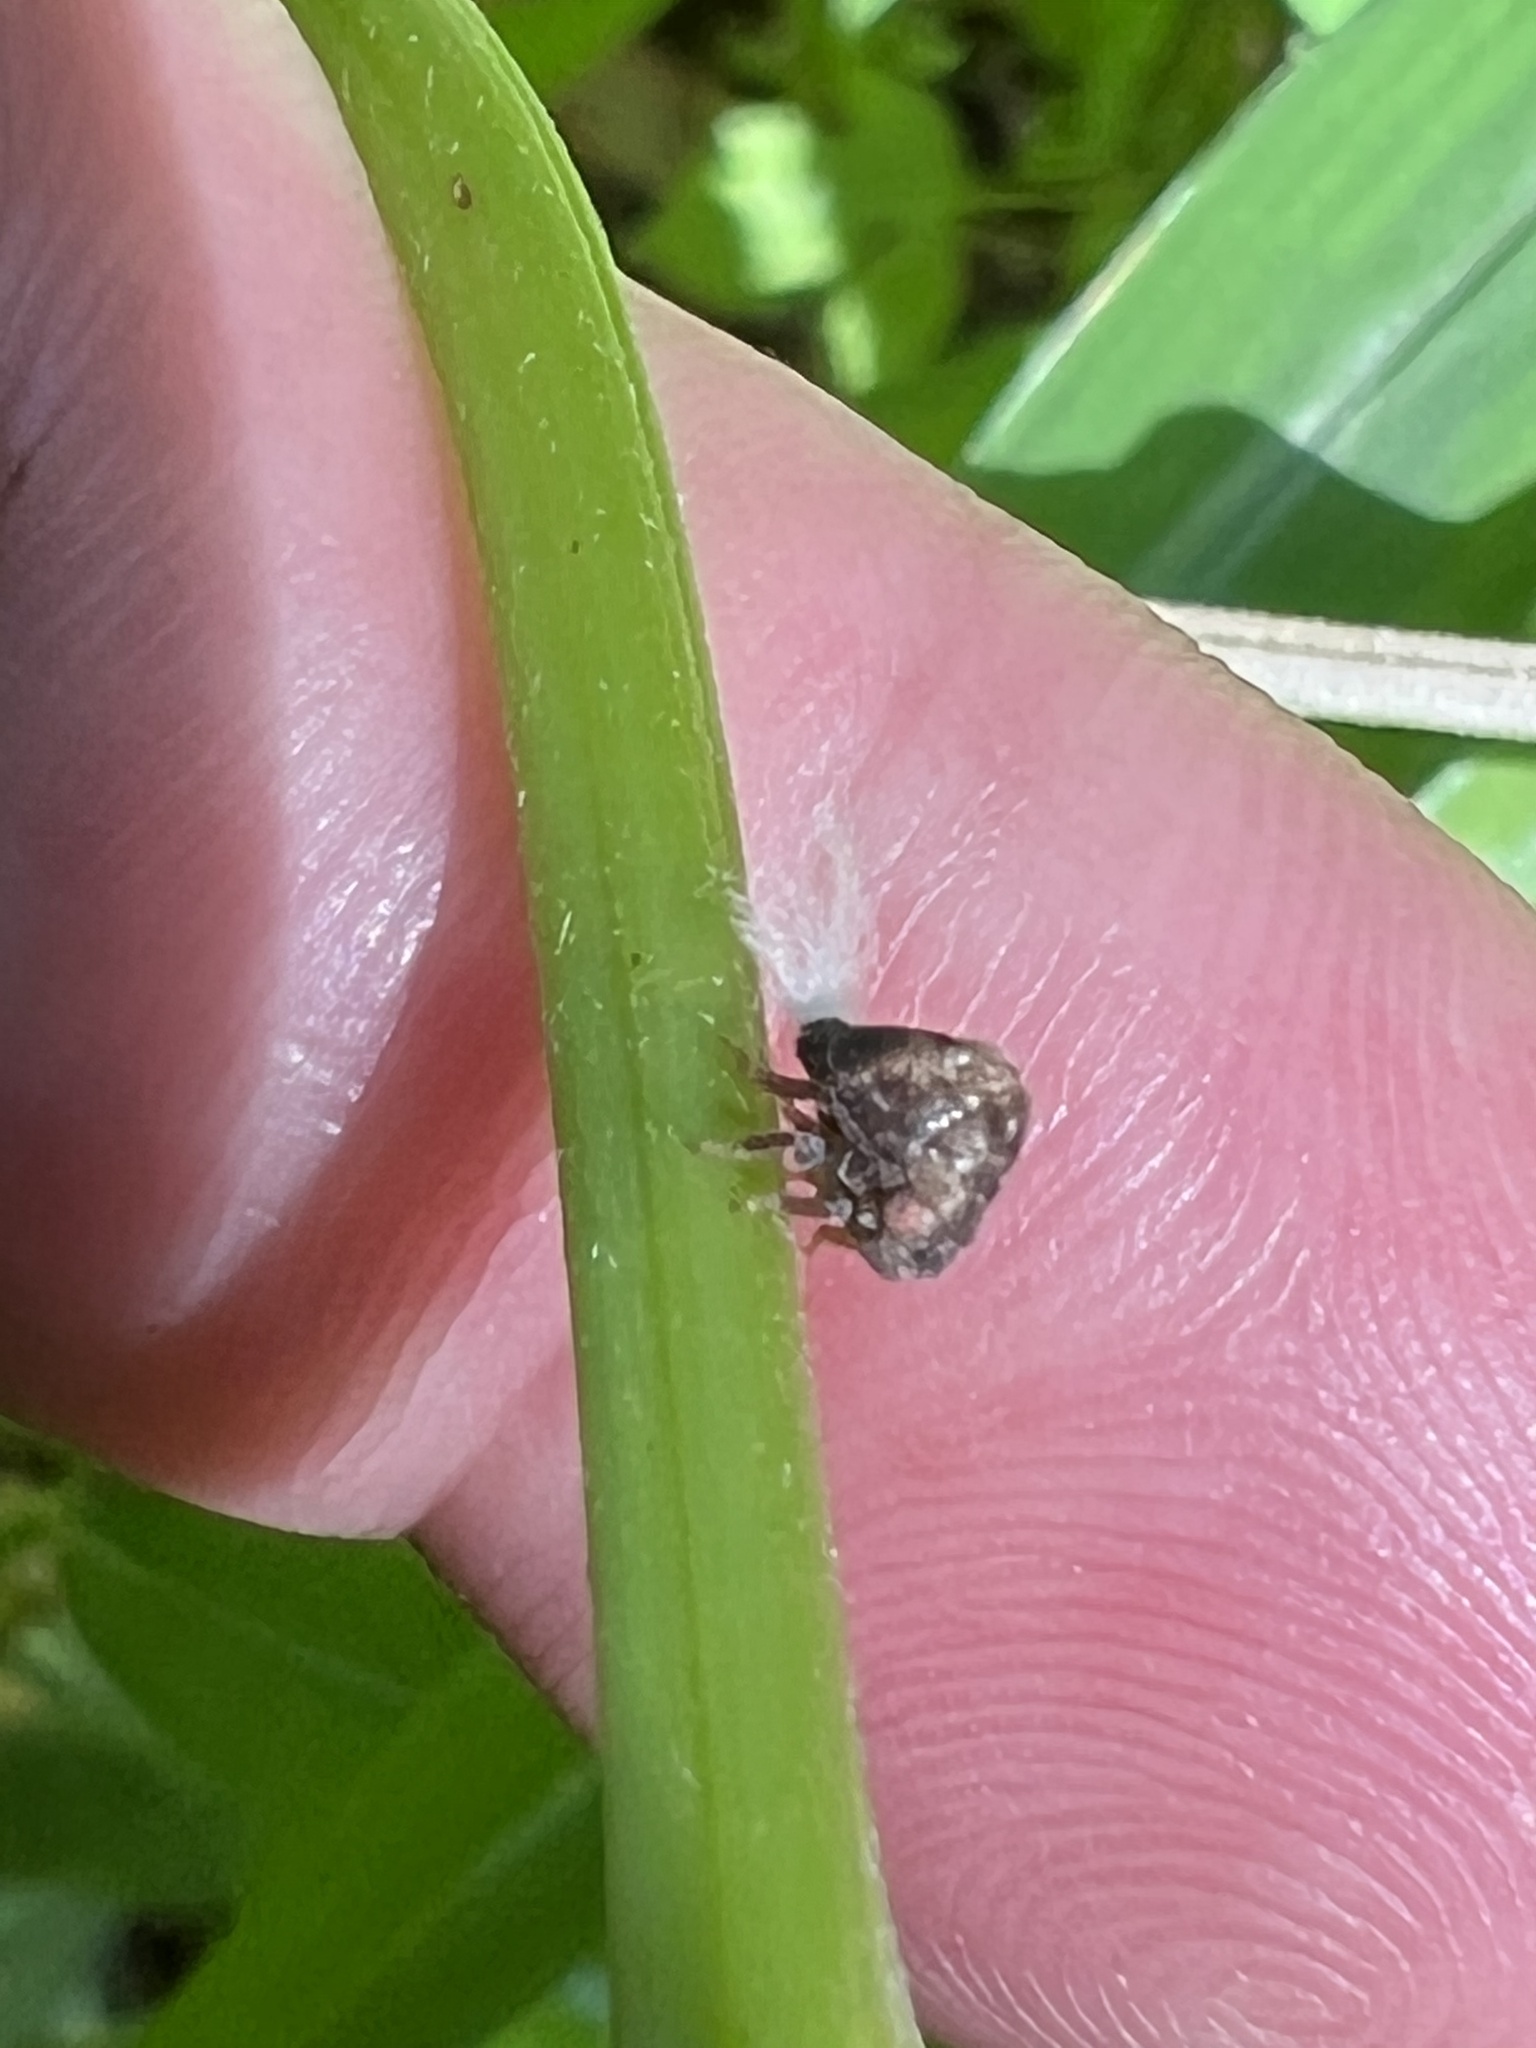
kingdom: Animalia
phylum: Arthropoda
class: Insecta
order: Hemiptera
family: Acanaloniidae
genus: Acanalonia
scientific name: Acanalonia bivittata
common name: Two-striped planthopper
